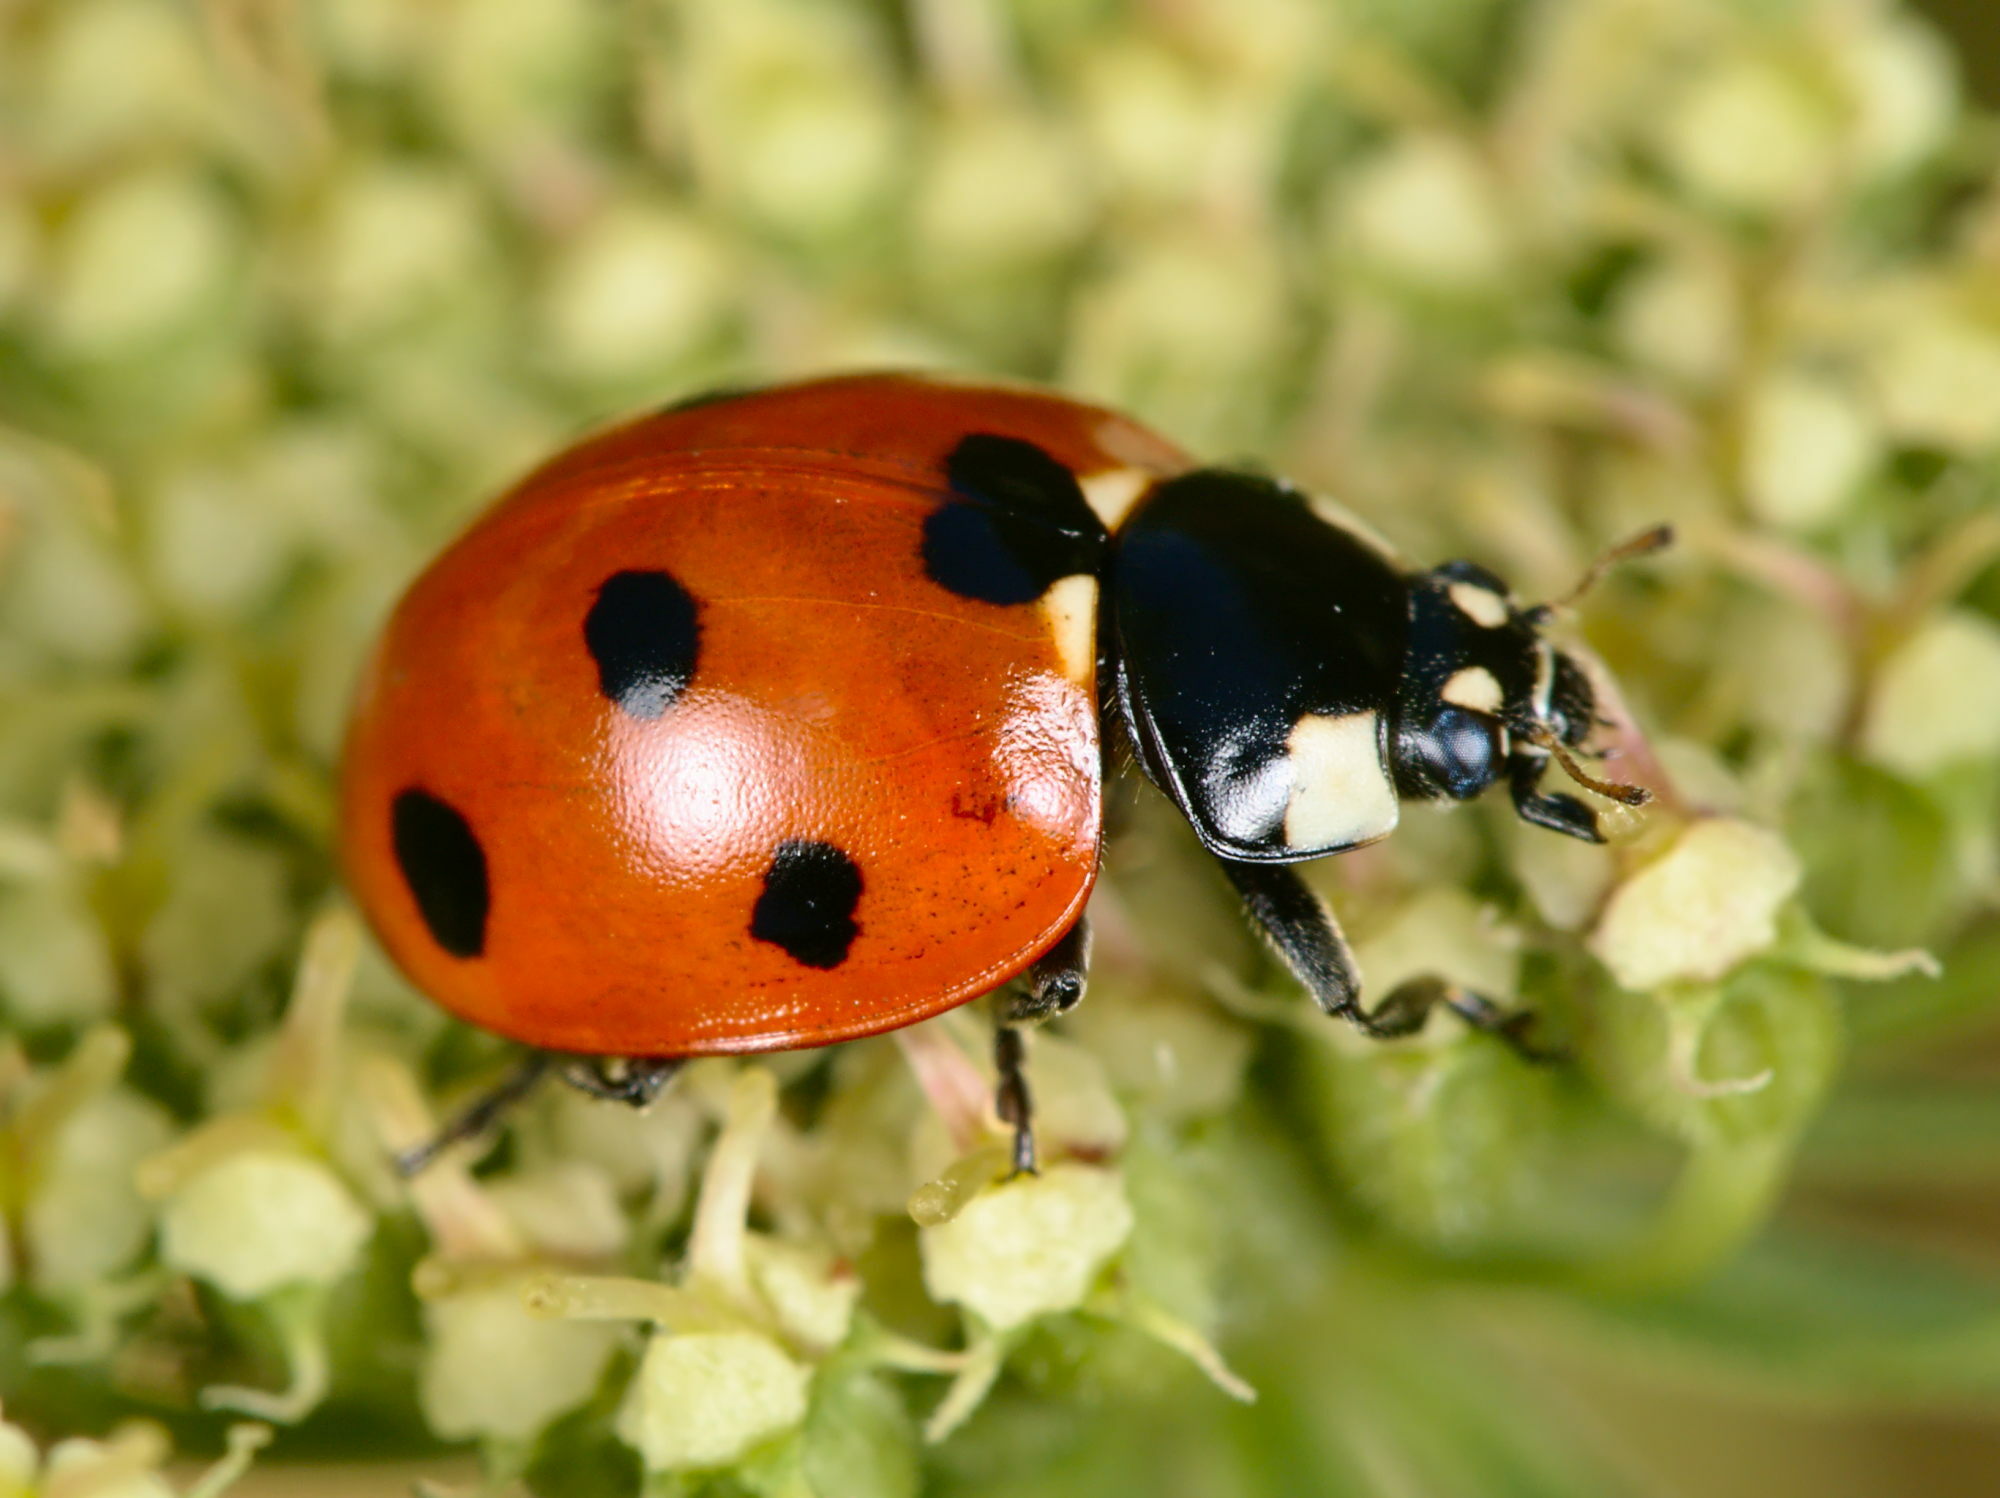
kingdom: Animalia
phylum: Arthropoda
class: Insecta
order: Coleoptera
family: Coccinellidae
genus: Coccinella
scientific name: Coccinella septempunctata
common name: Sevenspotted lady beetle
